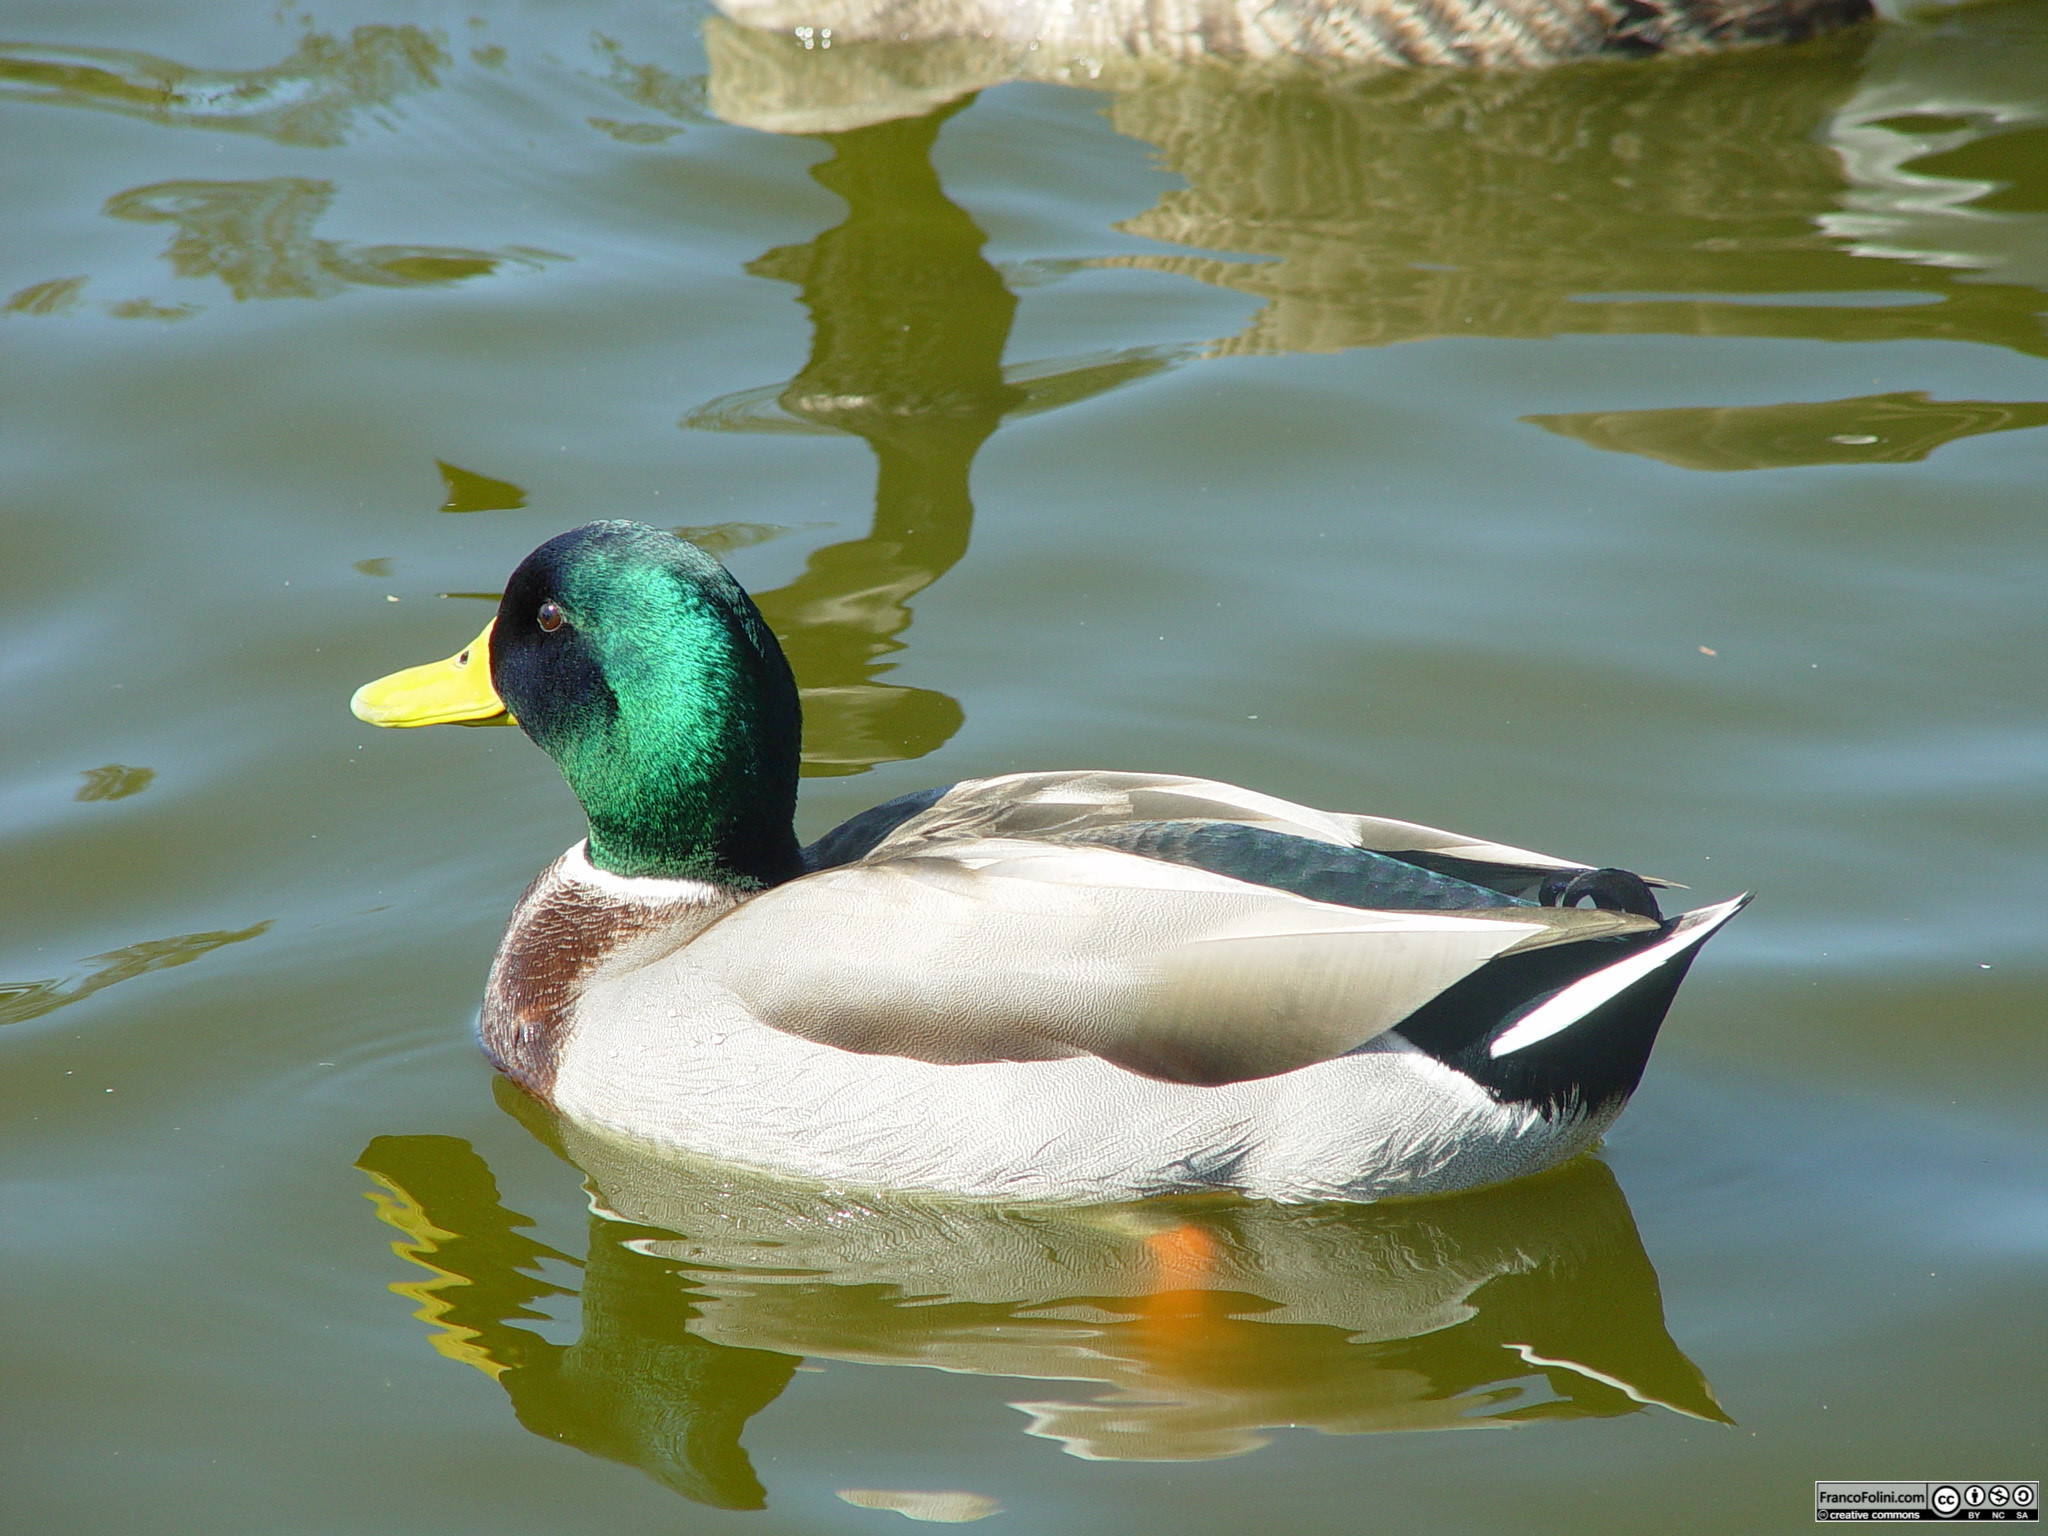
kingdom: Animalia
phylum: Chordata
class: Aves
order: Anseriformes
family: Anatidae
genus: Anas
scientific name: Anas platyrhynchos
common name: Mallard
